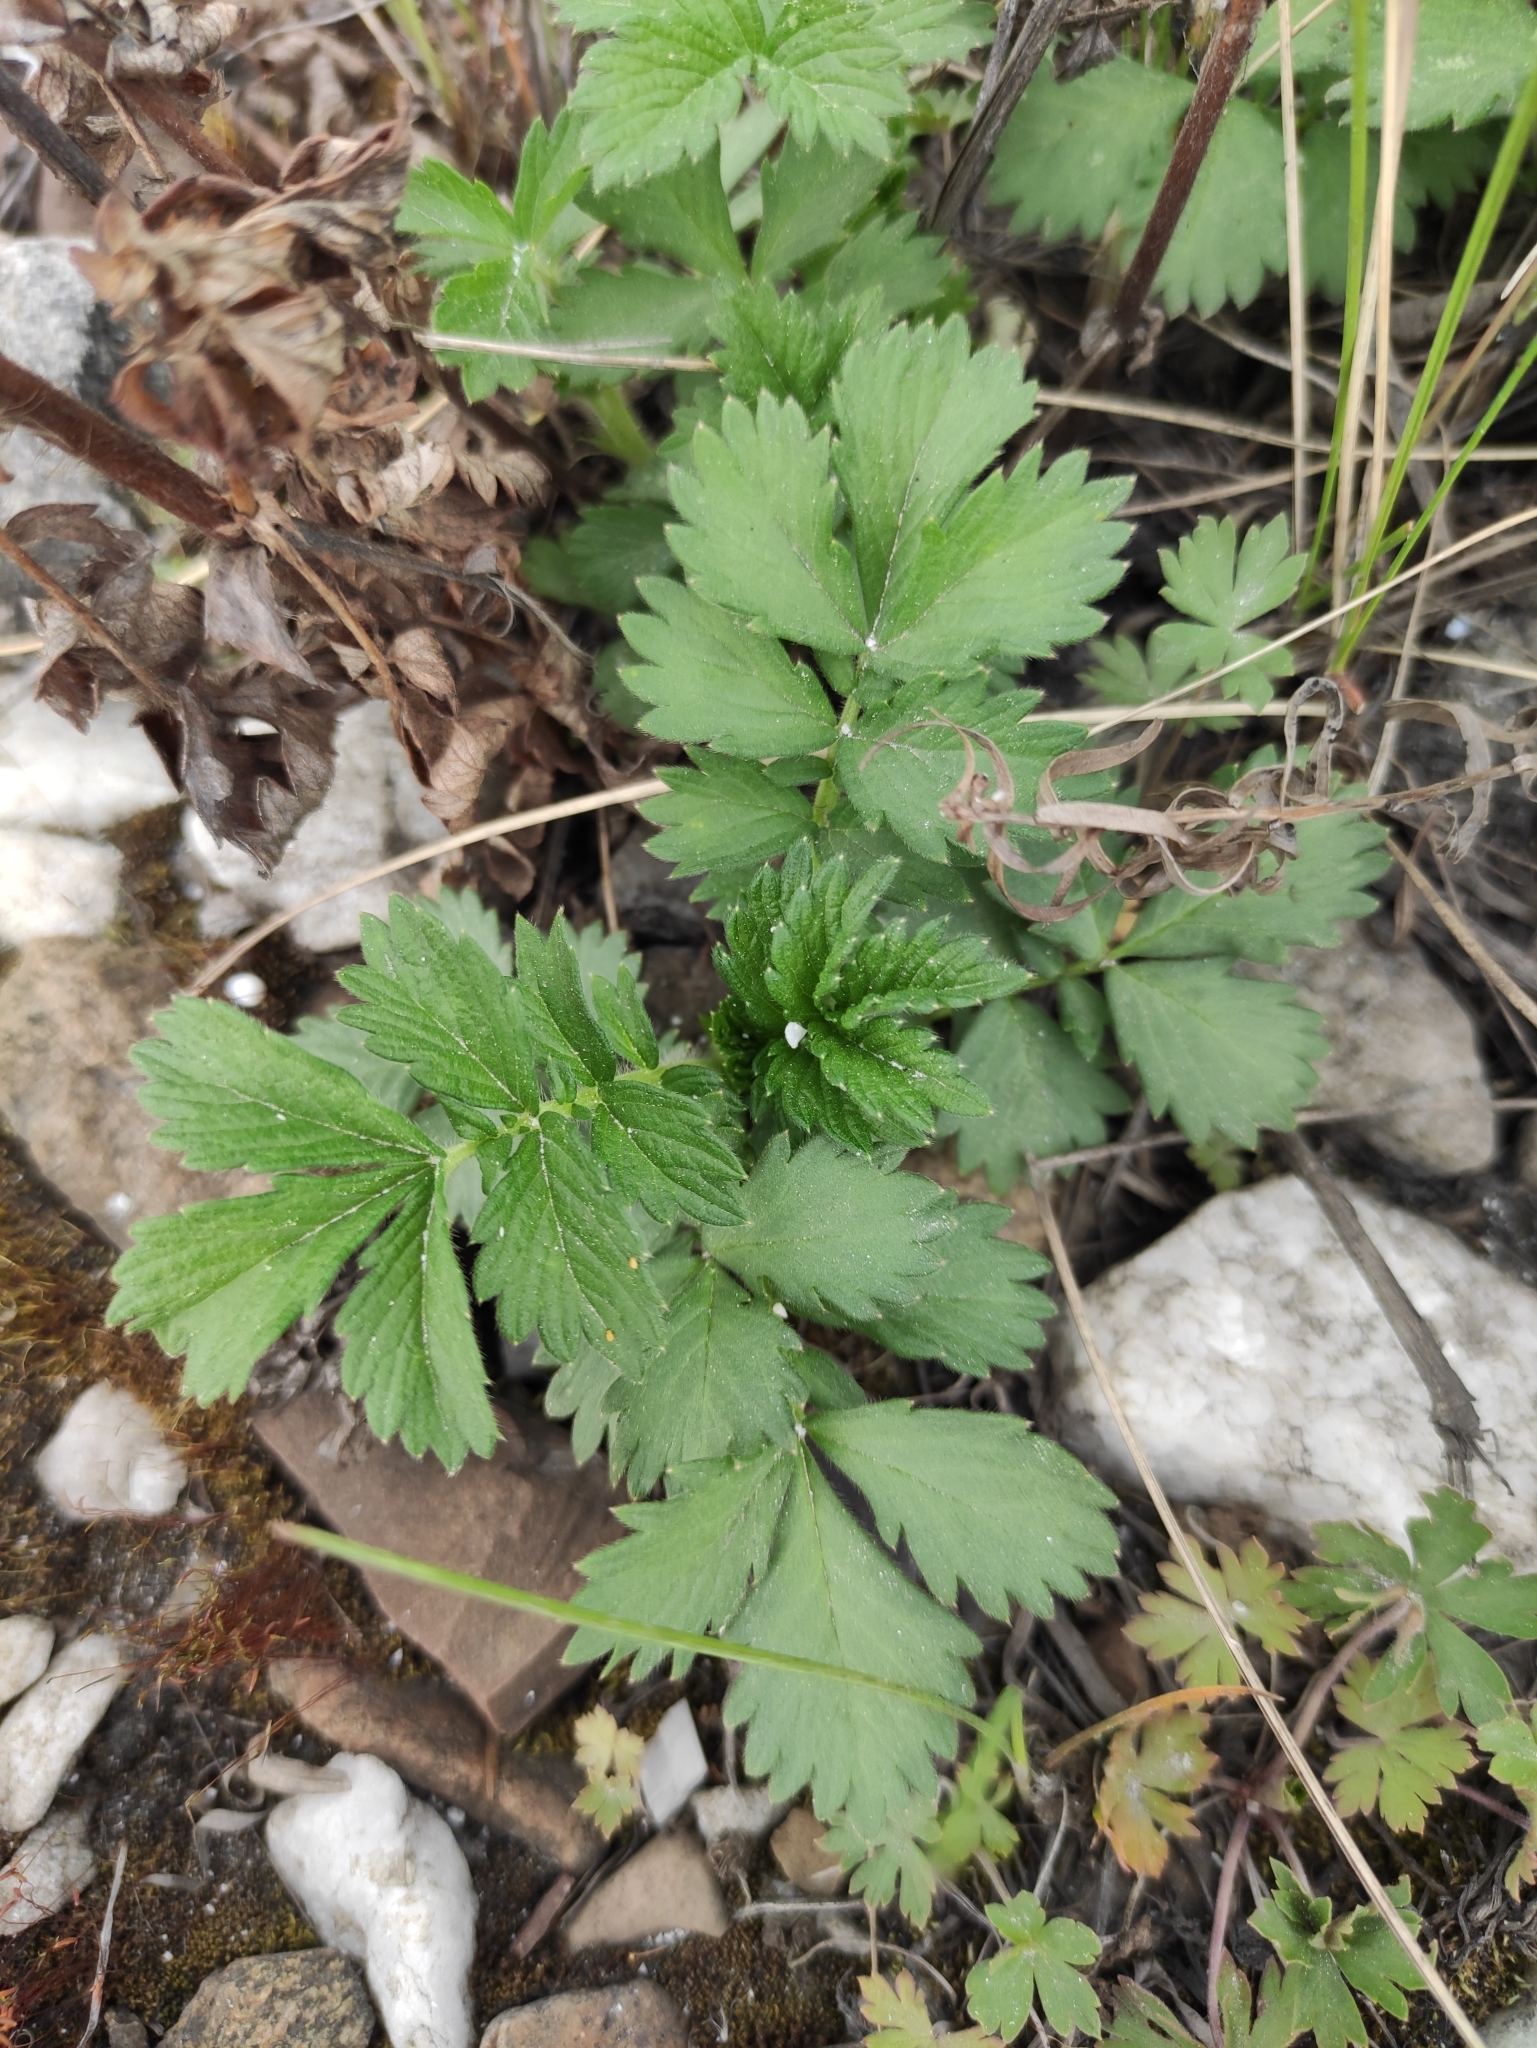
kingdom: Plantae
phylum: Tracheophyta
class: Magnoliopsida
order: Rosales
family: Rosaceae
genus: Agrimonia
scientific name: Agrimonia pilosa
